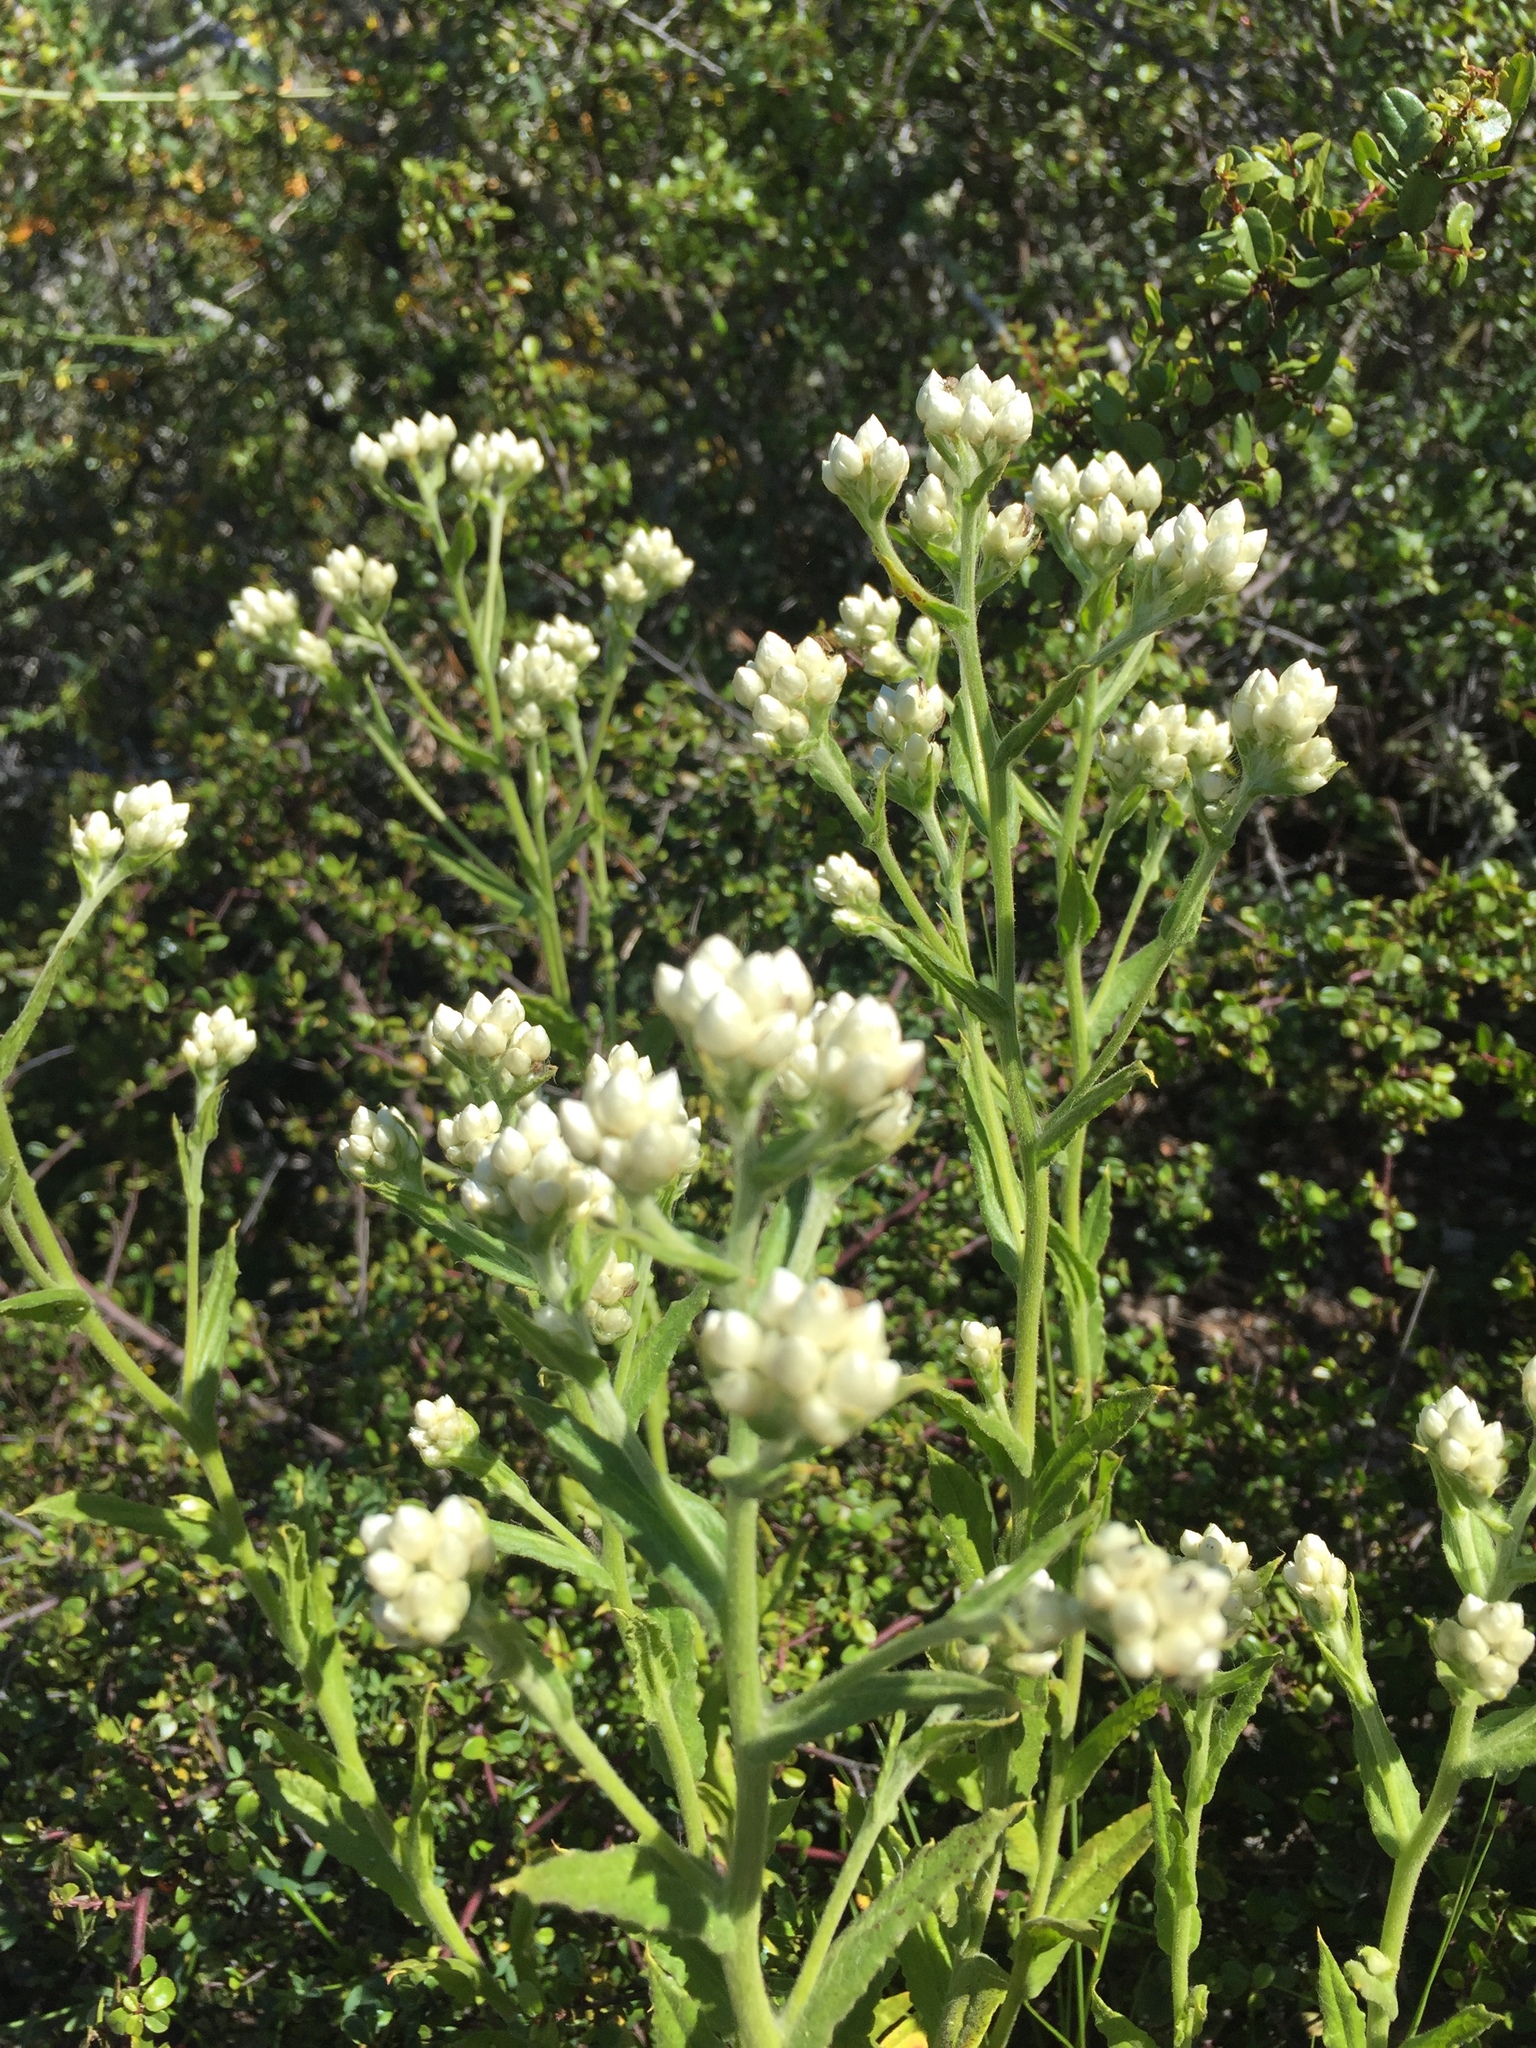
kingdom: Plantae
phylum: Tracheophyta
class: Magnoliopsida
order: Asterales
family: Asteraceae
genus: Pseudognaphalium
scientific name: Pseudognaphalium californicum
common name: California rabbit-tobacco
